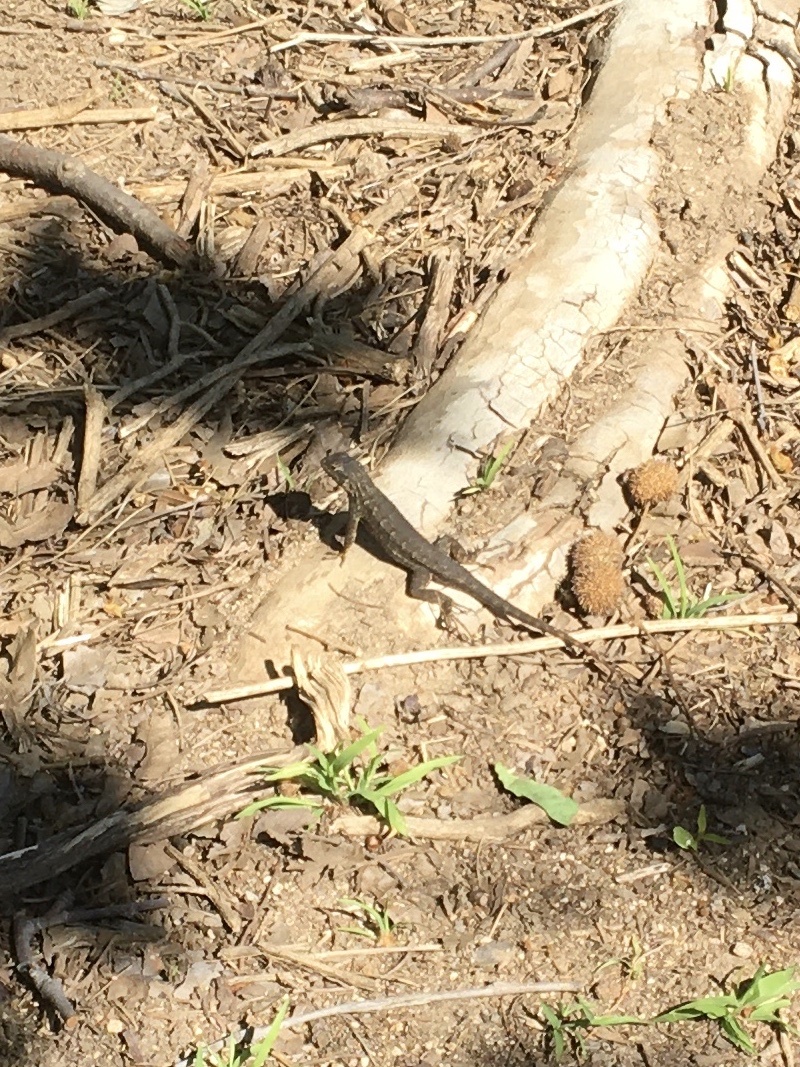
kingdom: Animalia
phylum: Chordata
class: Squamata
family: Phrynosomatidae
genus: Sceloporus
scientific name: Sceloporus occidentalis
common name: Western fence lizard
